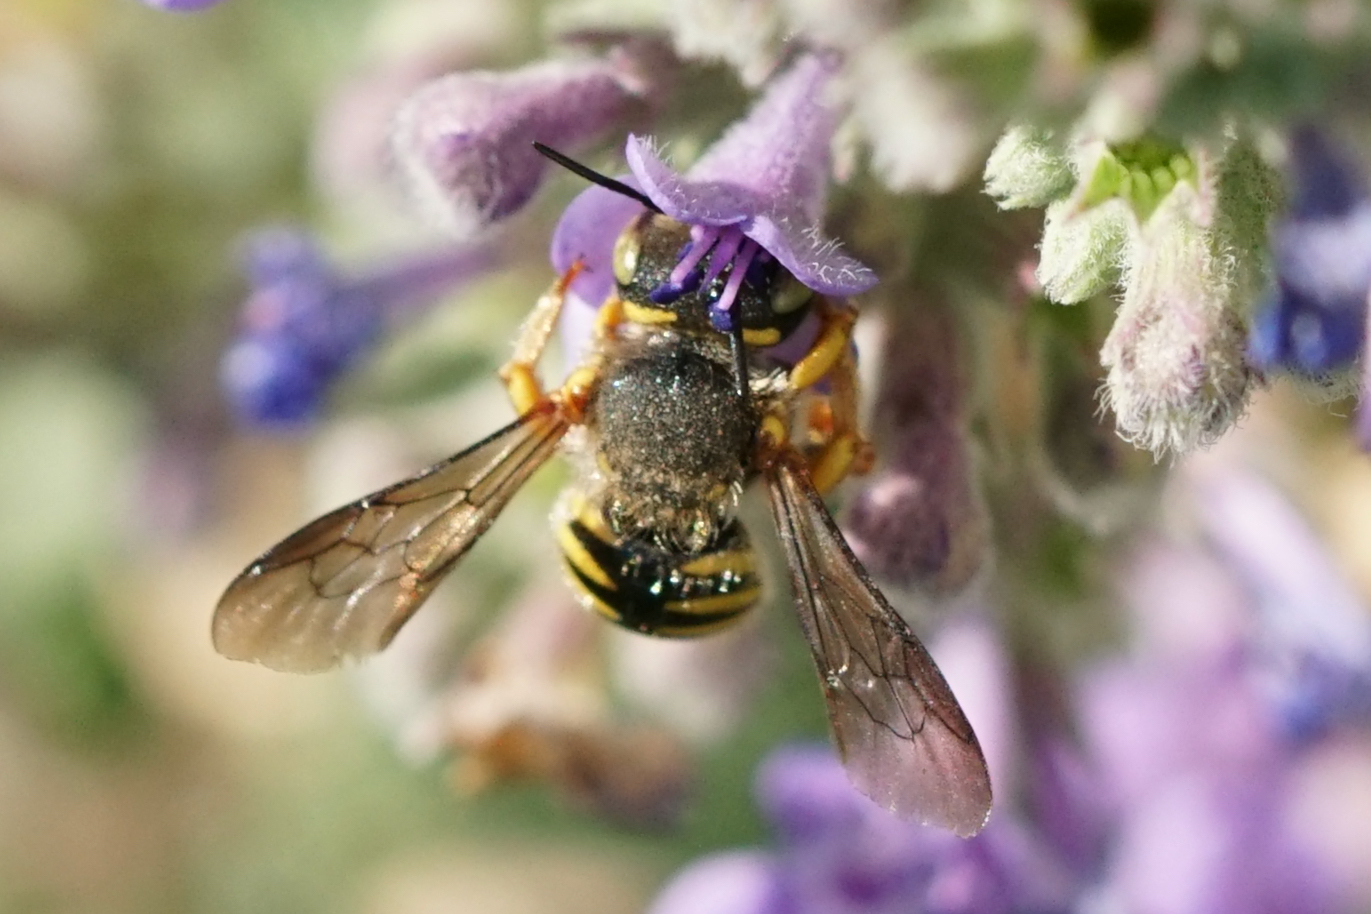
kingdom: Animalia
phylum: Arthropoda
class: Insecta
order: Hymenoptera
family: Megachilidae
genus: Anthidium
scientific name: Anthidium oblongatum
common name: Oblong wool carder bee
